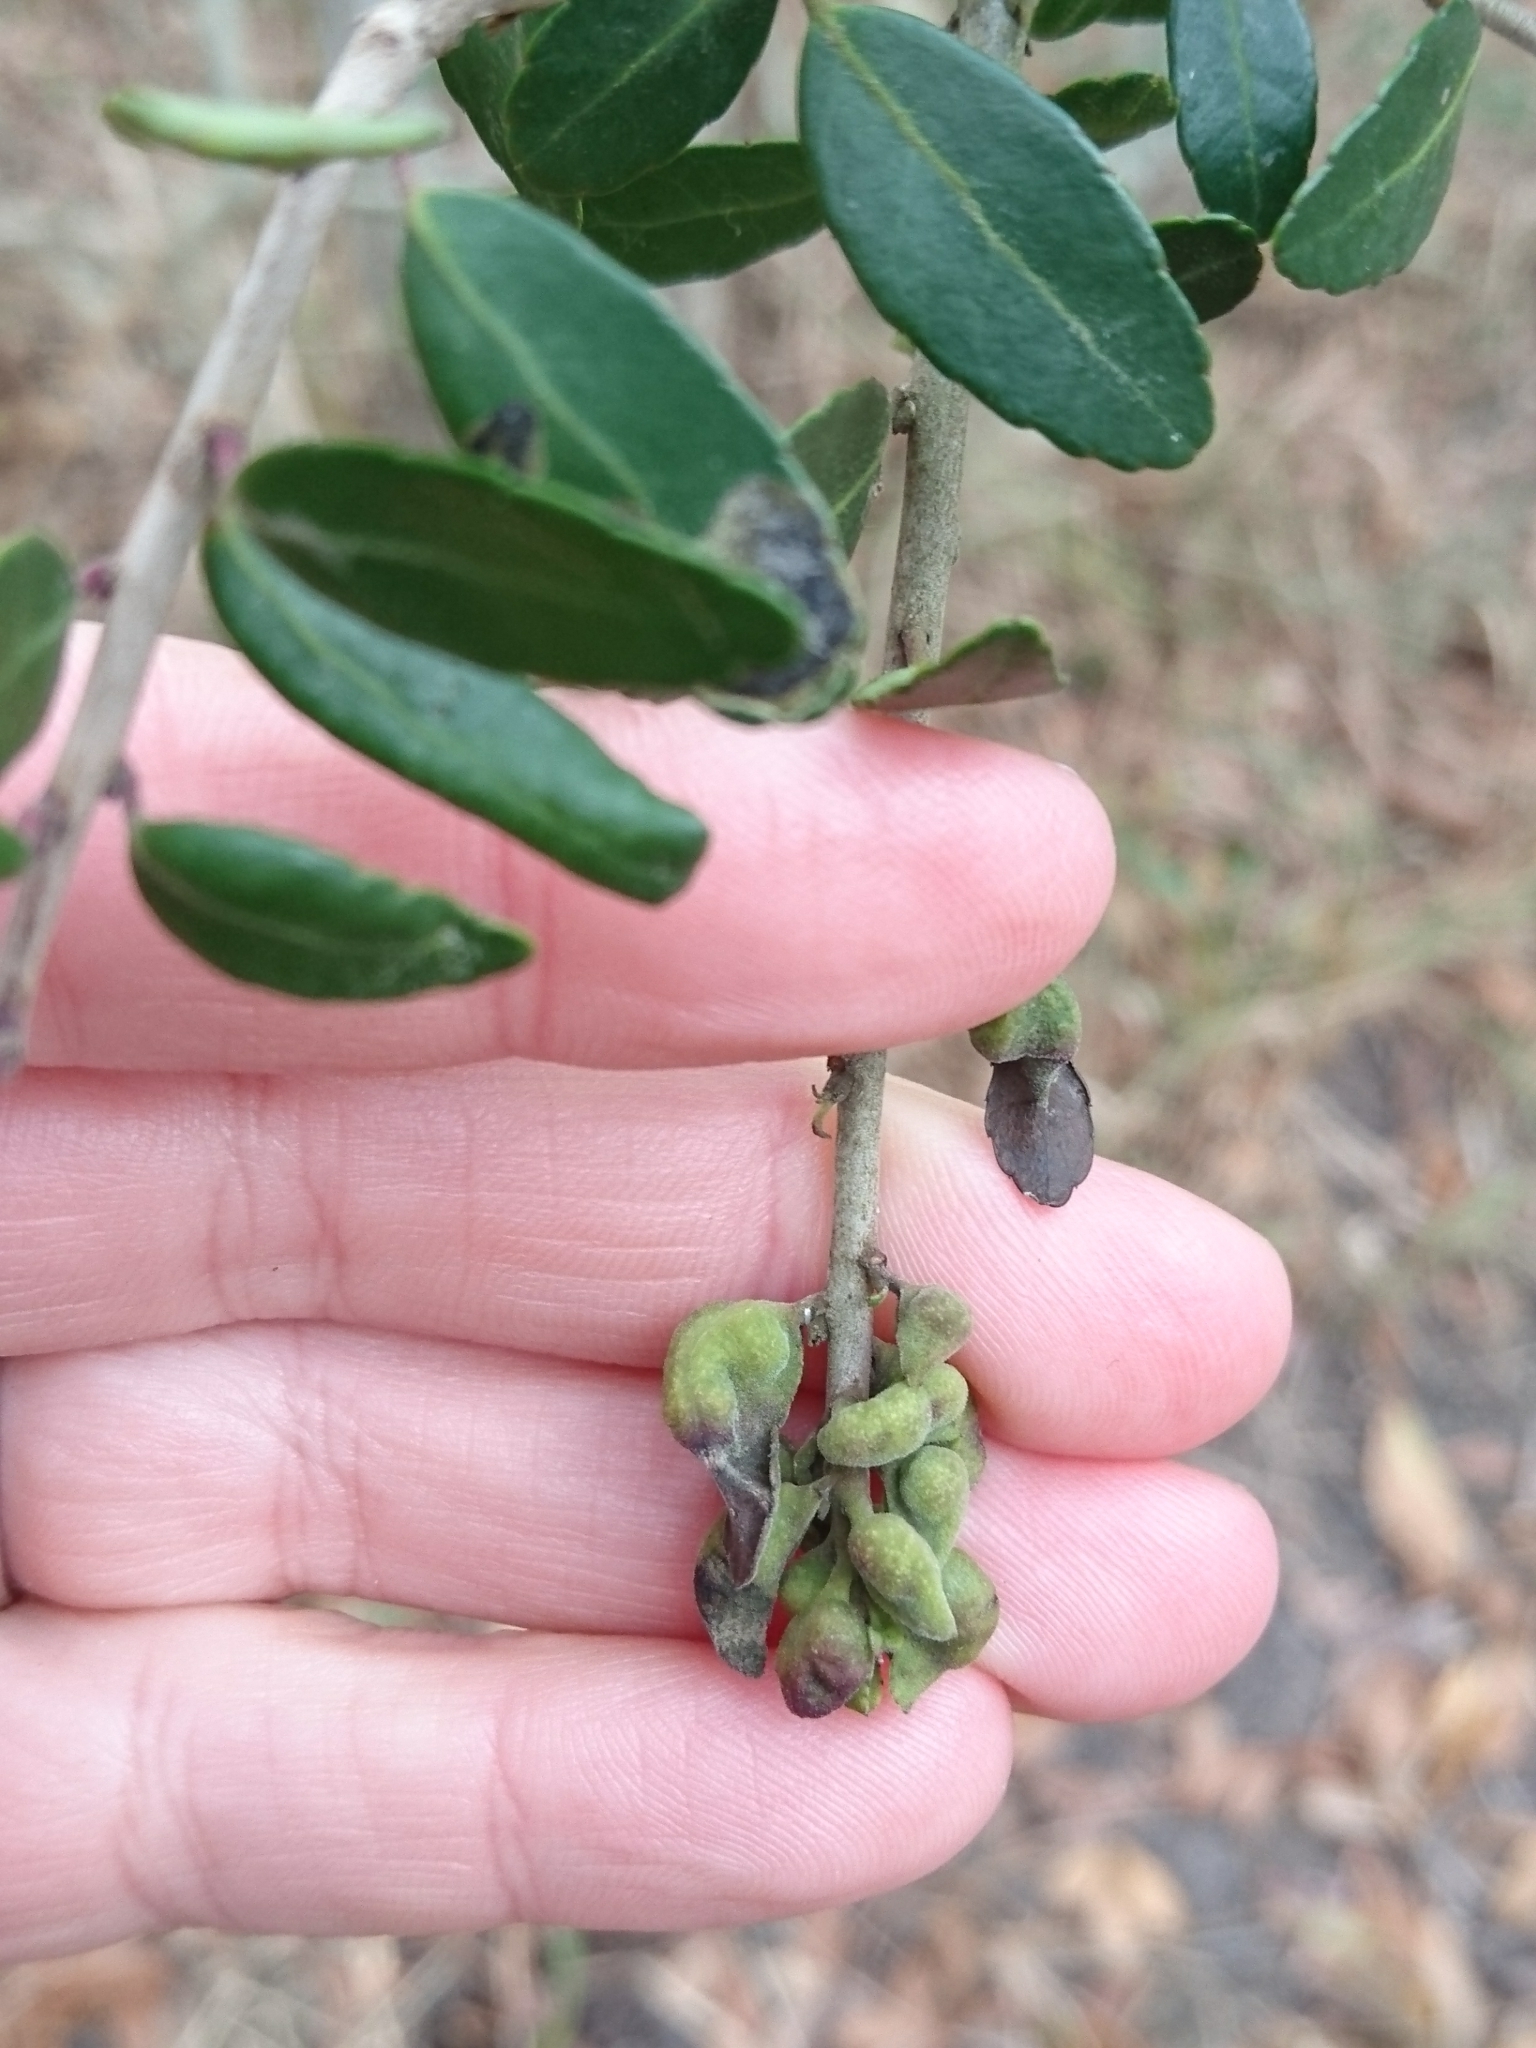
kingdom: Animalia
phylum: Arthropoda
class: Insecta
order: Hemiptera
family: Aphalaridae
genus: Gyropsylla
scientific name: Gyropsylla ilecis
